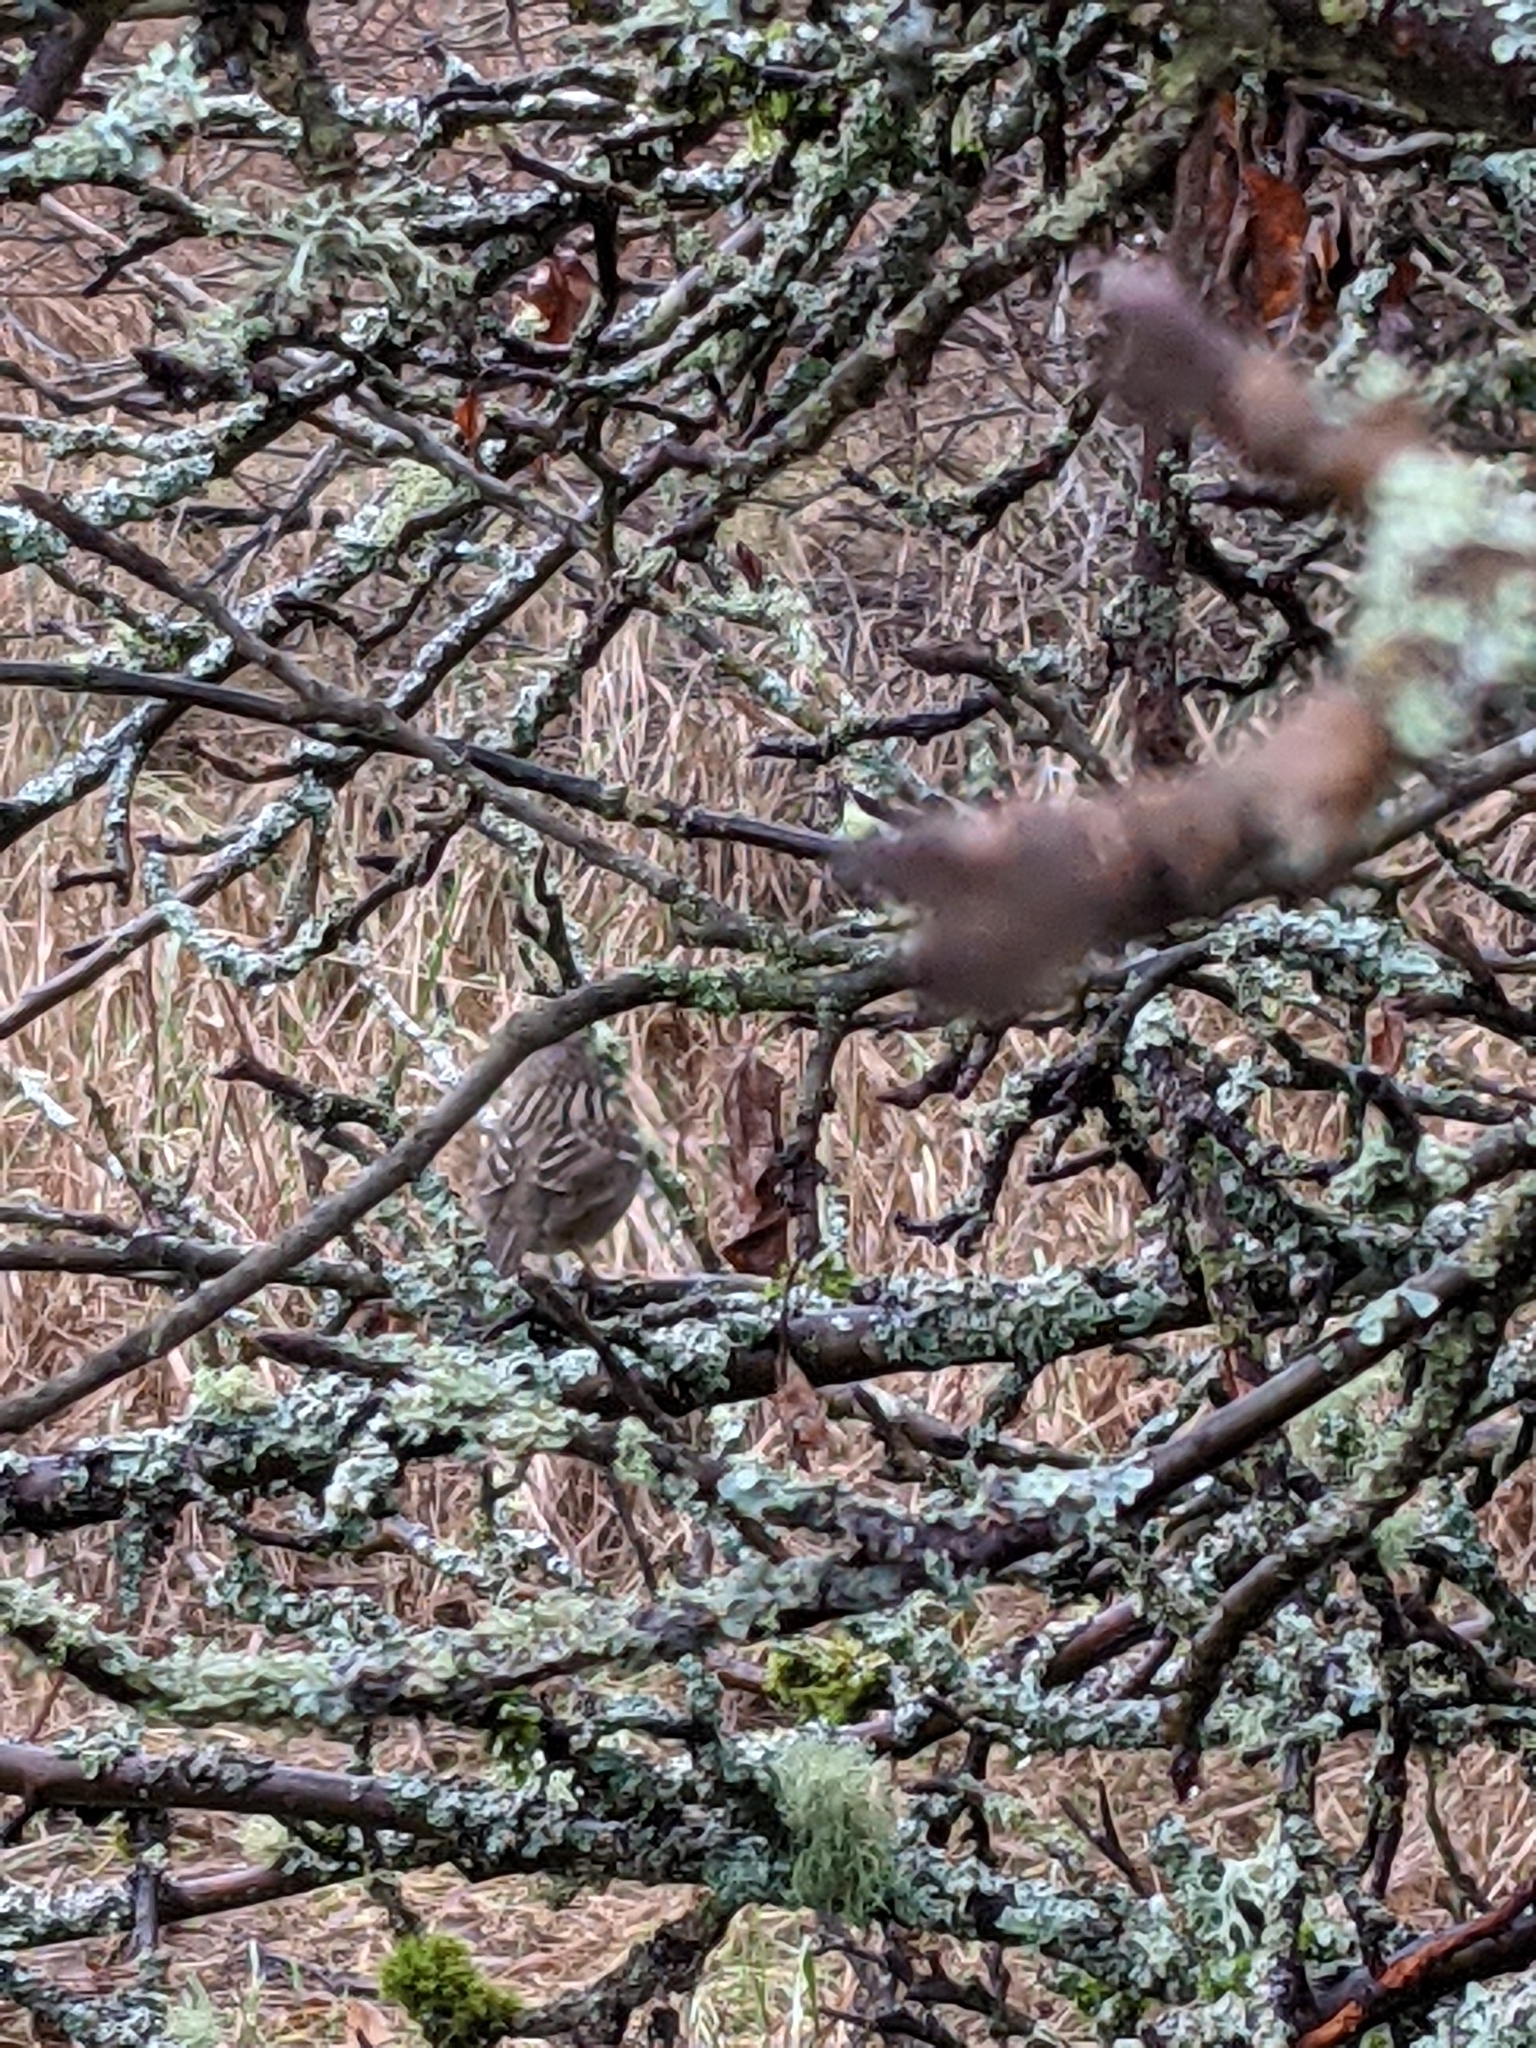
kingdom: Animalia
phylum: Chordata
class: Aves
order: Passeriformes
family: Passerellidae
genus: Zonotrichia
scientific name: Zonotrichia atricapilla
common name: Golden-crowned sparrow
